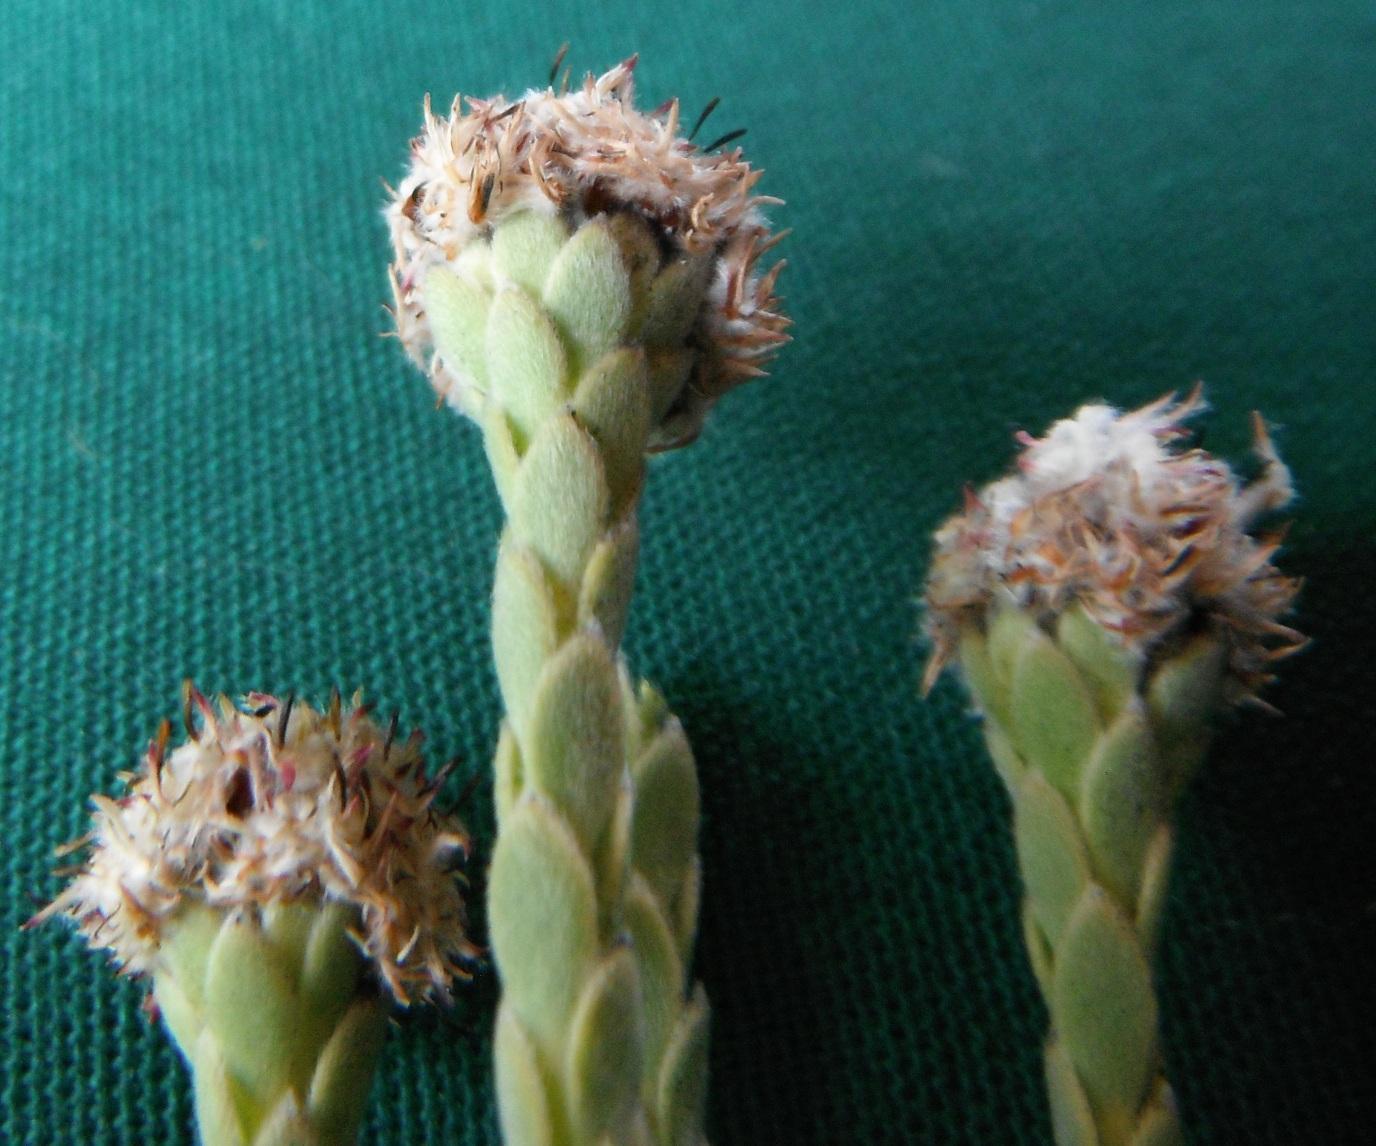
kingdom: Plantae
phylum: Tracheophyta
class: Magnoliopsida
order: Proteales
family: Proteaceae
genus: Leucadendron
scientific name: Leucadendron dubium
